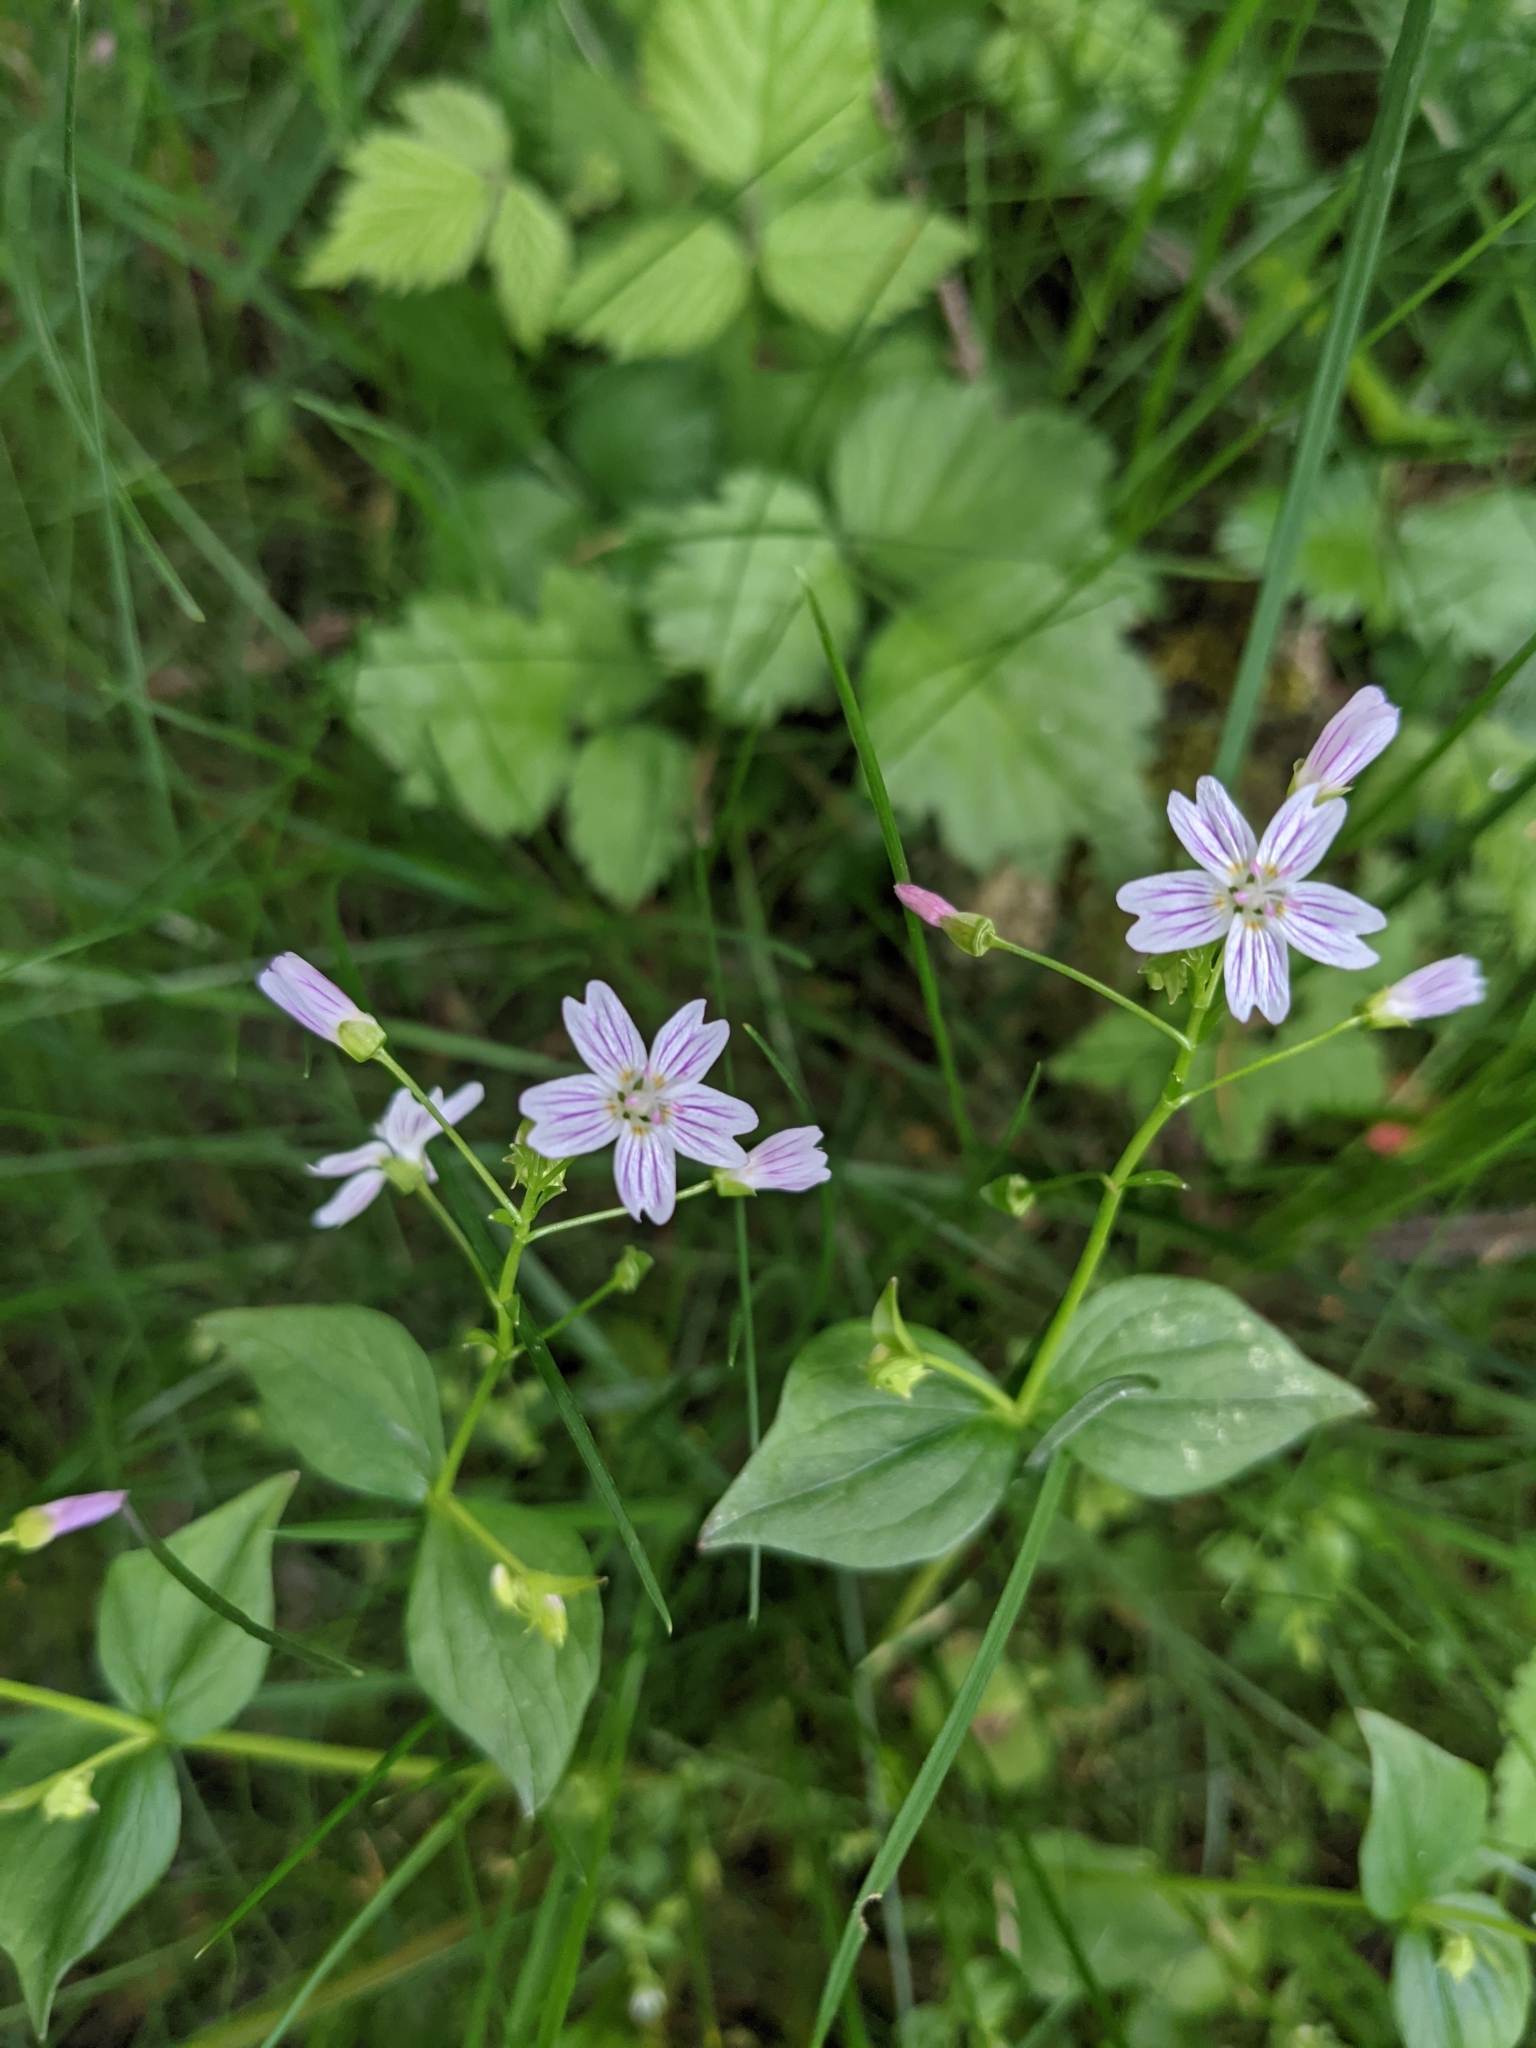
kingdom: Plantae
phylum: Tracheophyta
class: Magnoliopsida
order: Caryophyllales
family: Montiaceae
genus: Claytonia
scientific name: Claytonia sibirica
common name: Pink purslane
